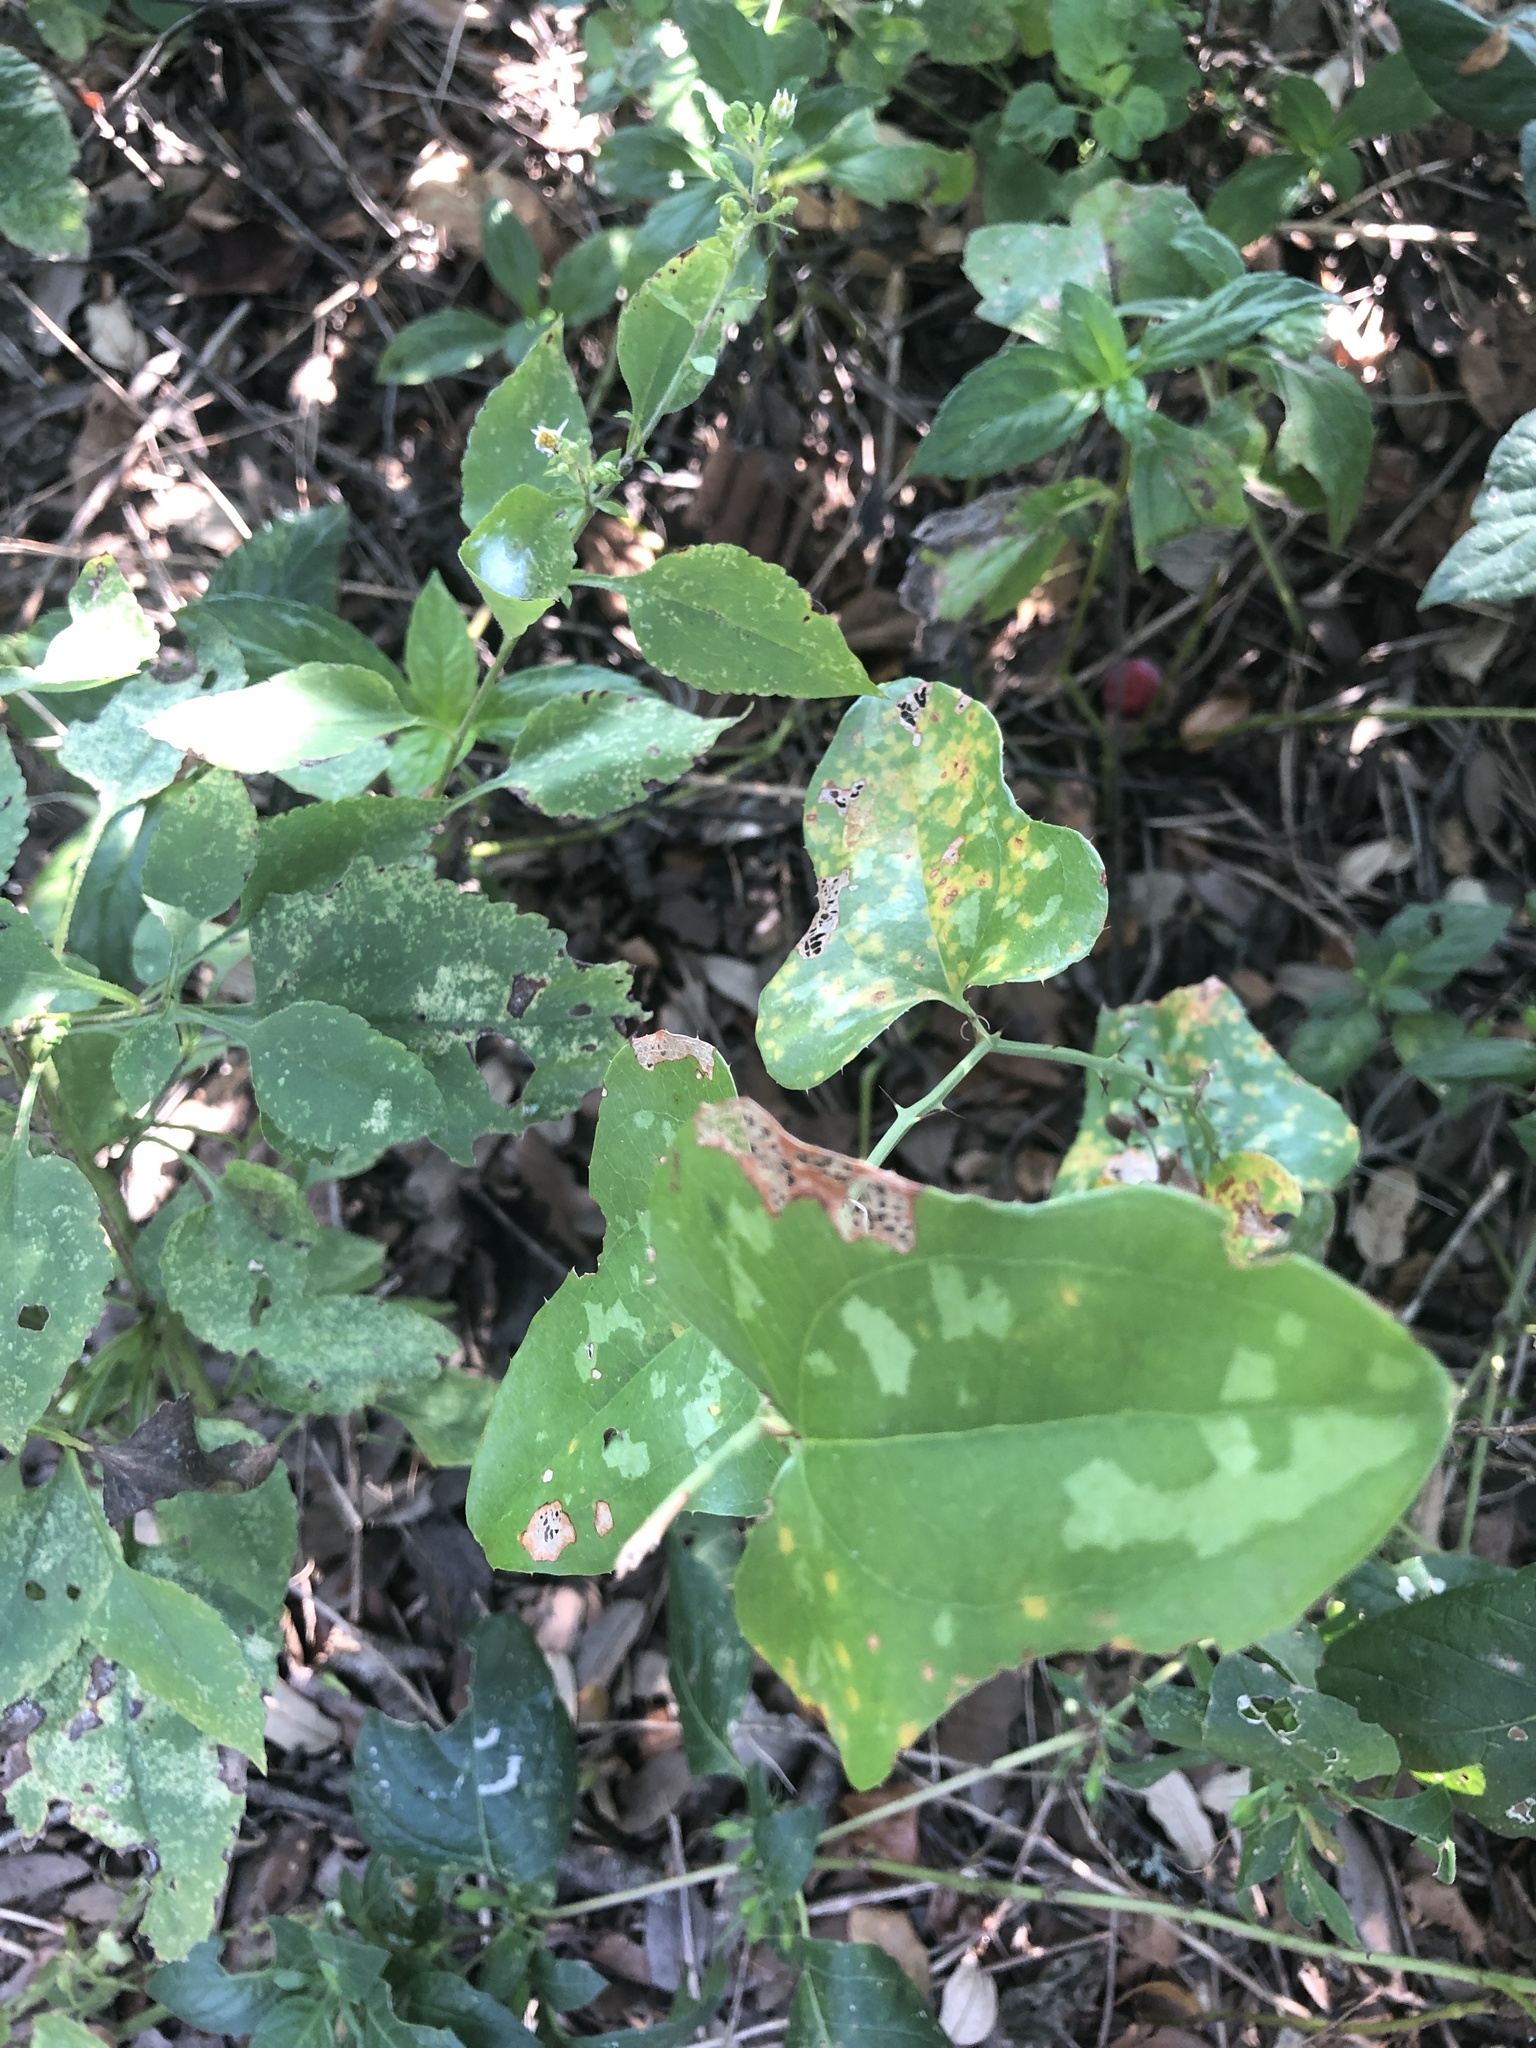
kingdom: Plantae
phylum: Tracheophyta
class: Liliopsida
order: Liliales
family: Smilacaceae
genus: Smilax
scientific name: Smilax bona-nox
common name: Catbrier
